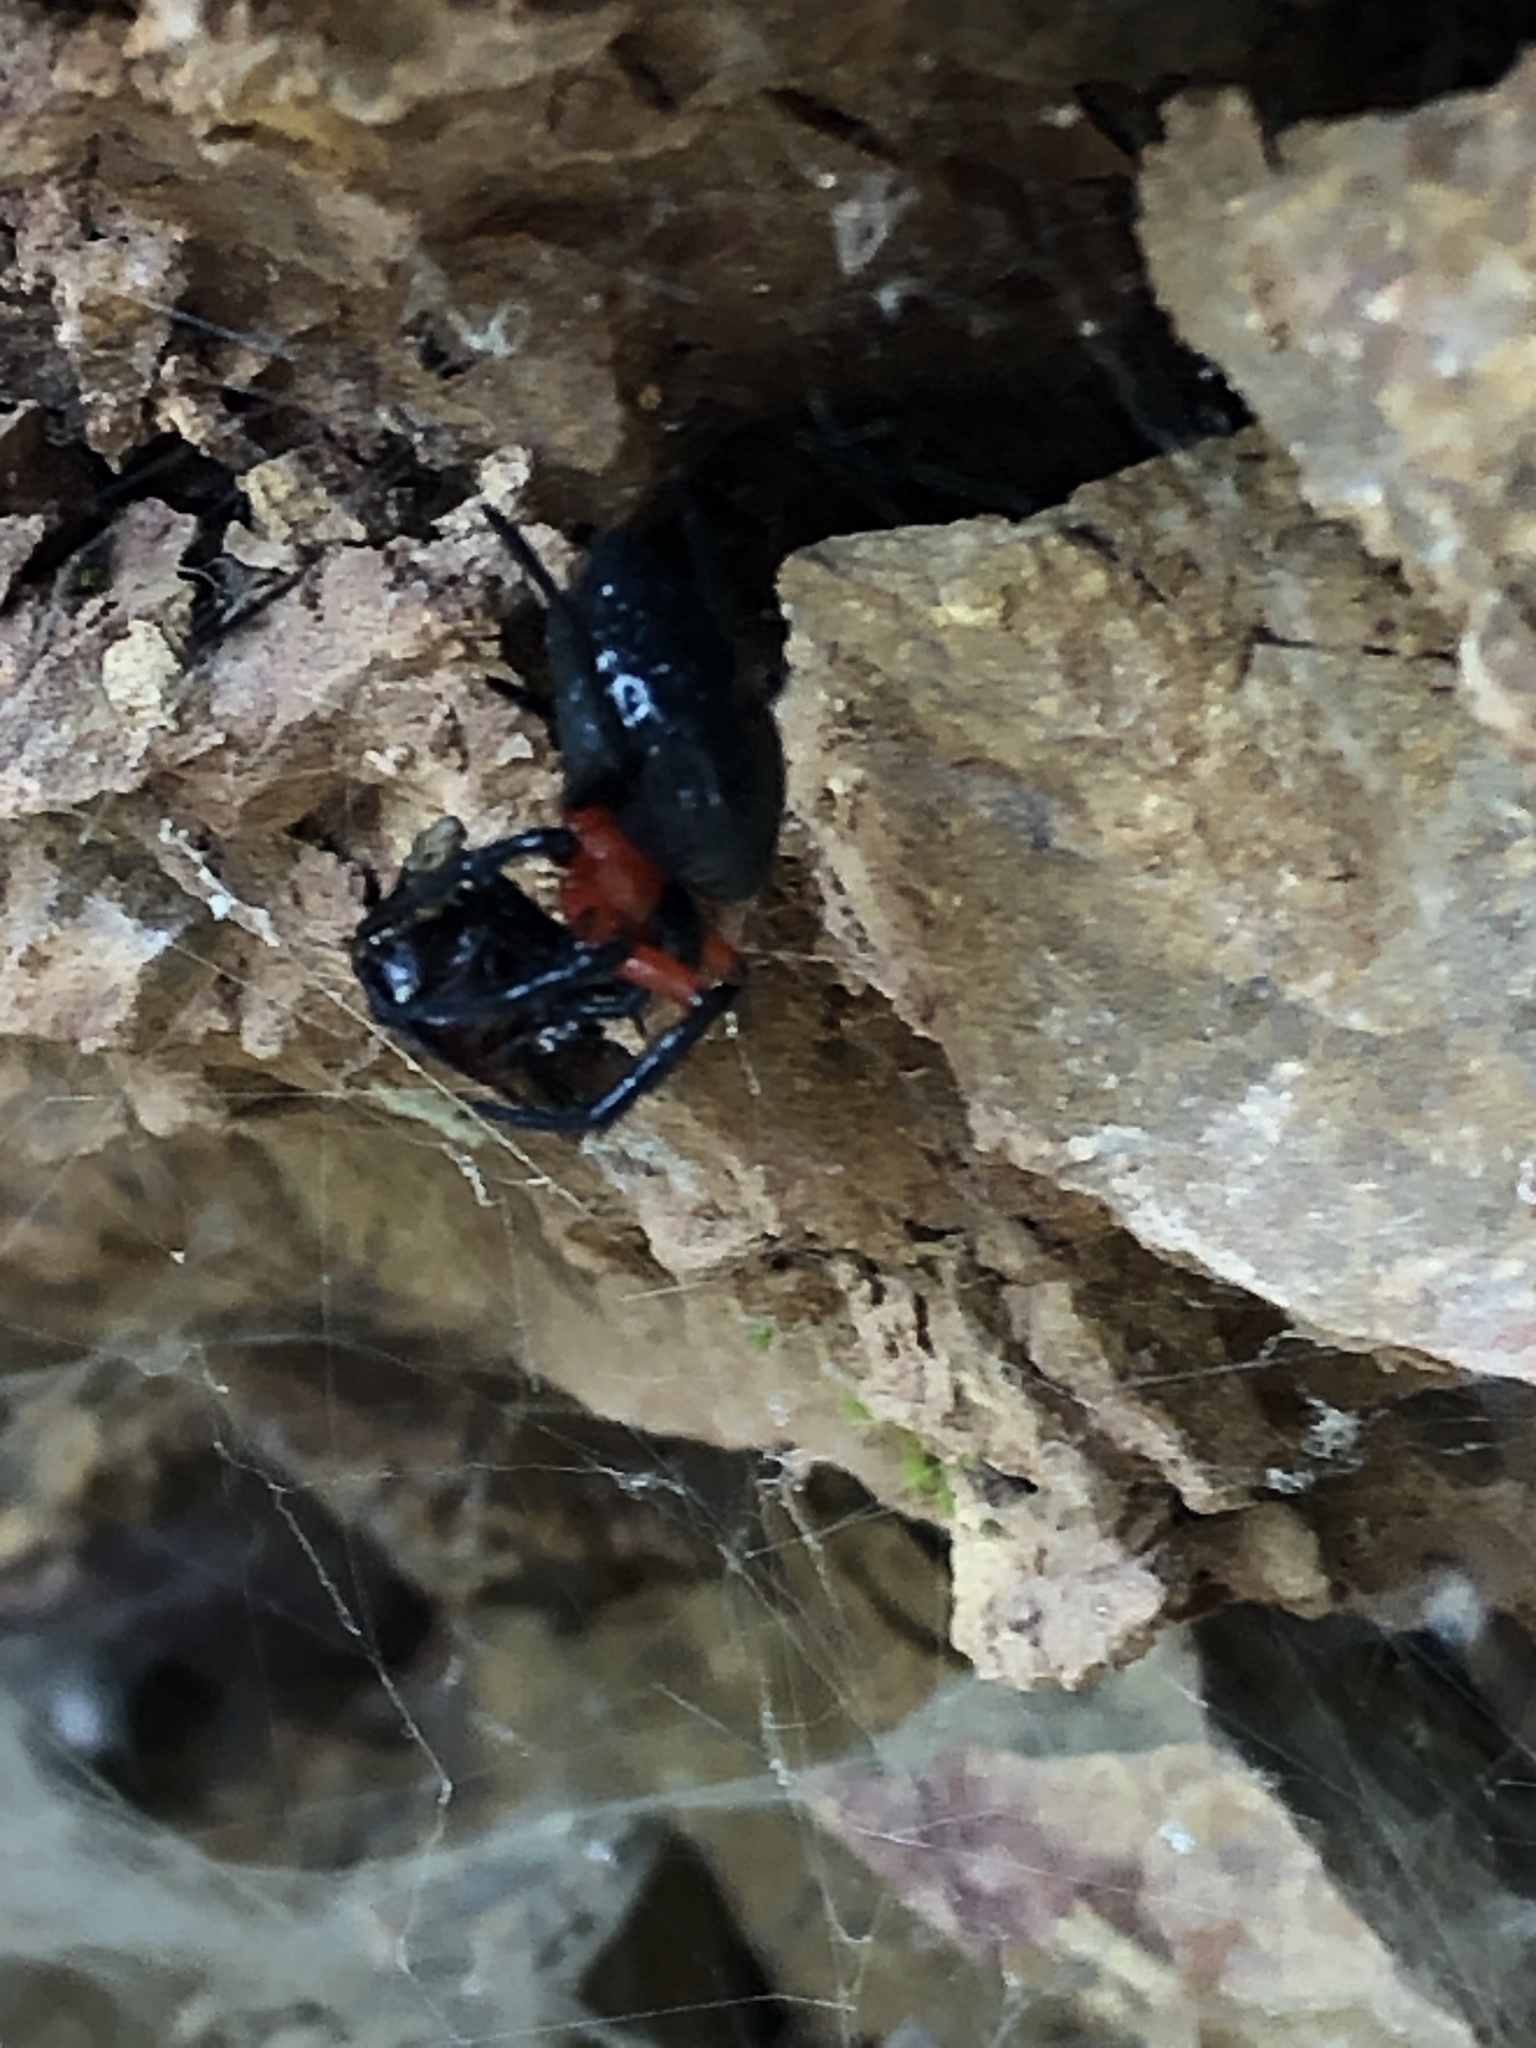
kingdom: Animalia
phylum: Arthropoda
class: Arachnida
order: Araneae
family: Araneidae
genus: Alpaida
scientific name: Alpaida acuta
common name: Orb weavers
